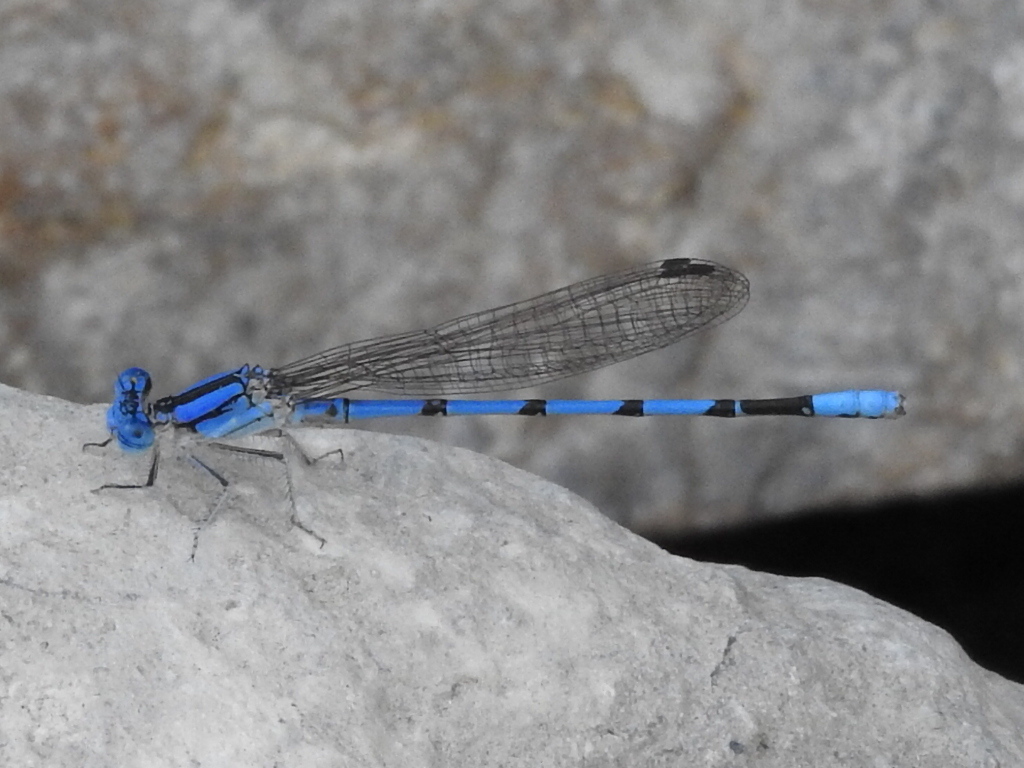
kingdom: Animalia
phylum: Arthropoda
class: Insecta
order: Odonata
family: Coenagrionidae
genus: Argia
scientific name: Argia nahuana
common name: Aztec dancer
